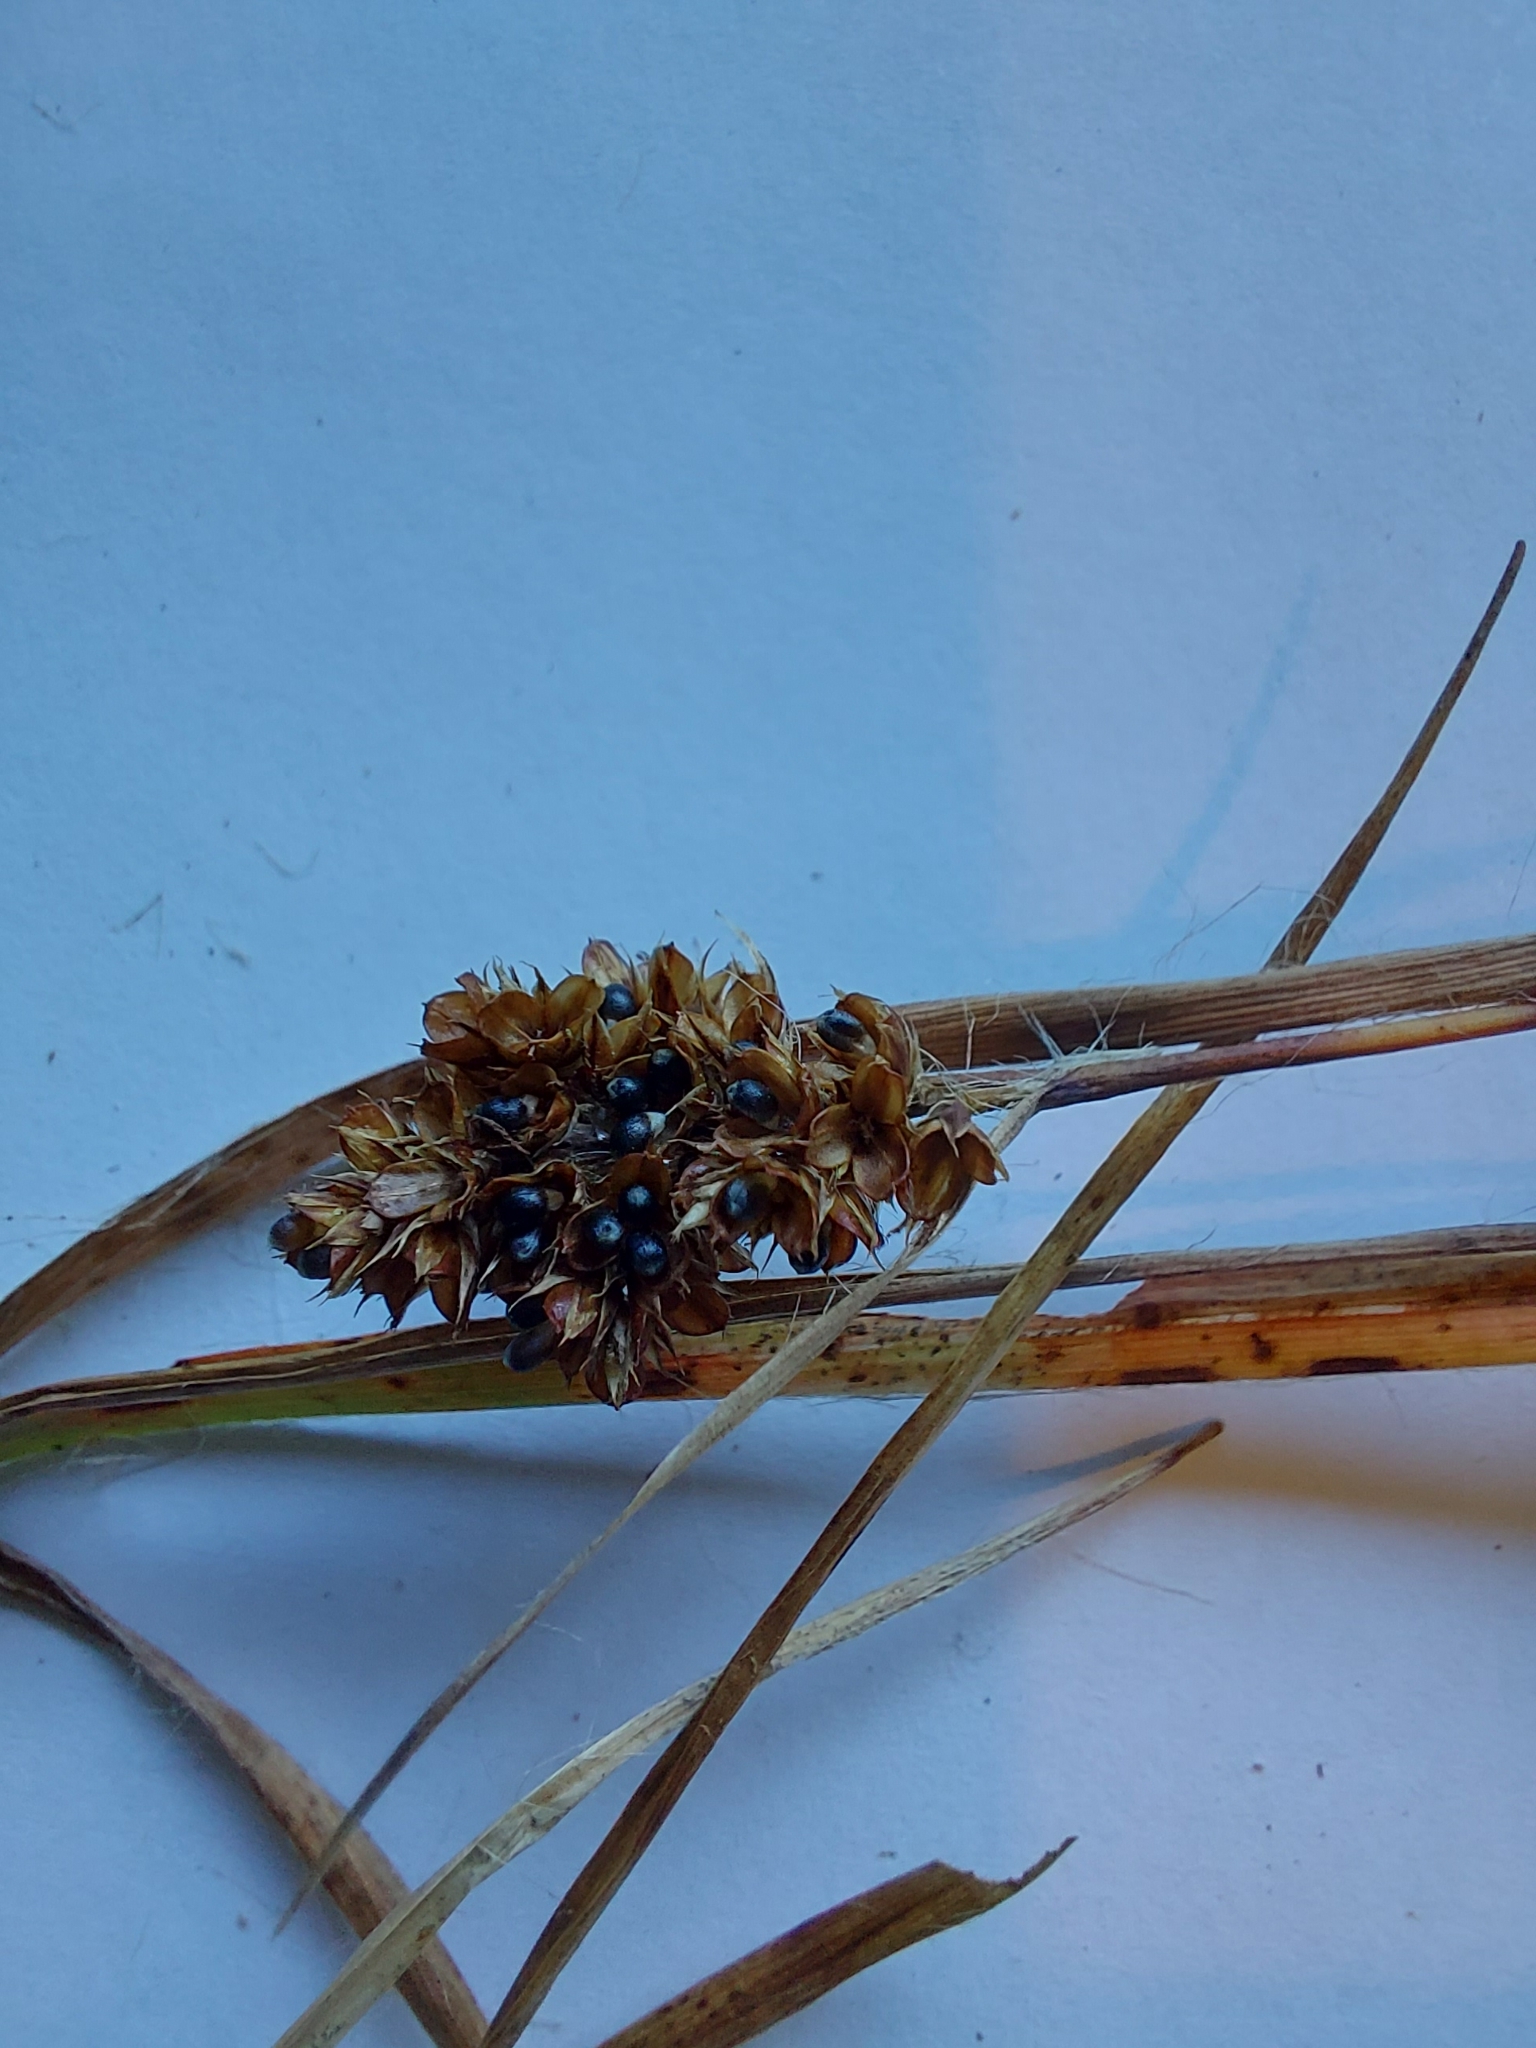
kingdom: Plantae
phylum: Tracheophyta
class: Liliopsida
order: Poales
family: Juncaceae
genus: Luzula
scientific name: Luzula congesta
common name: Heath woodrush
